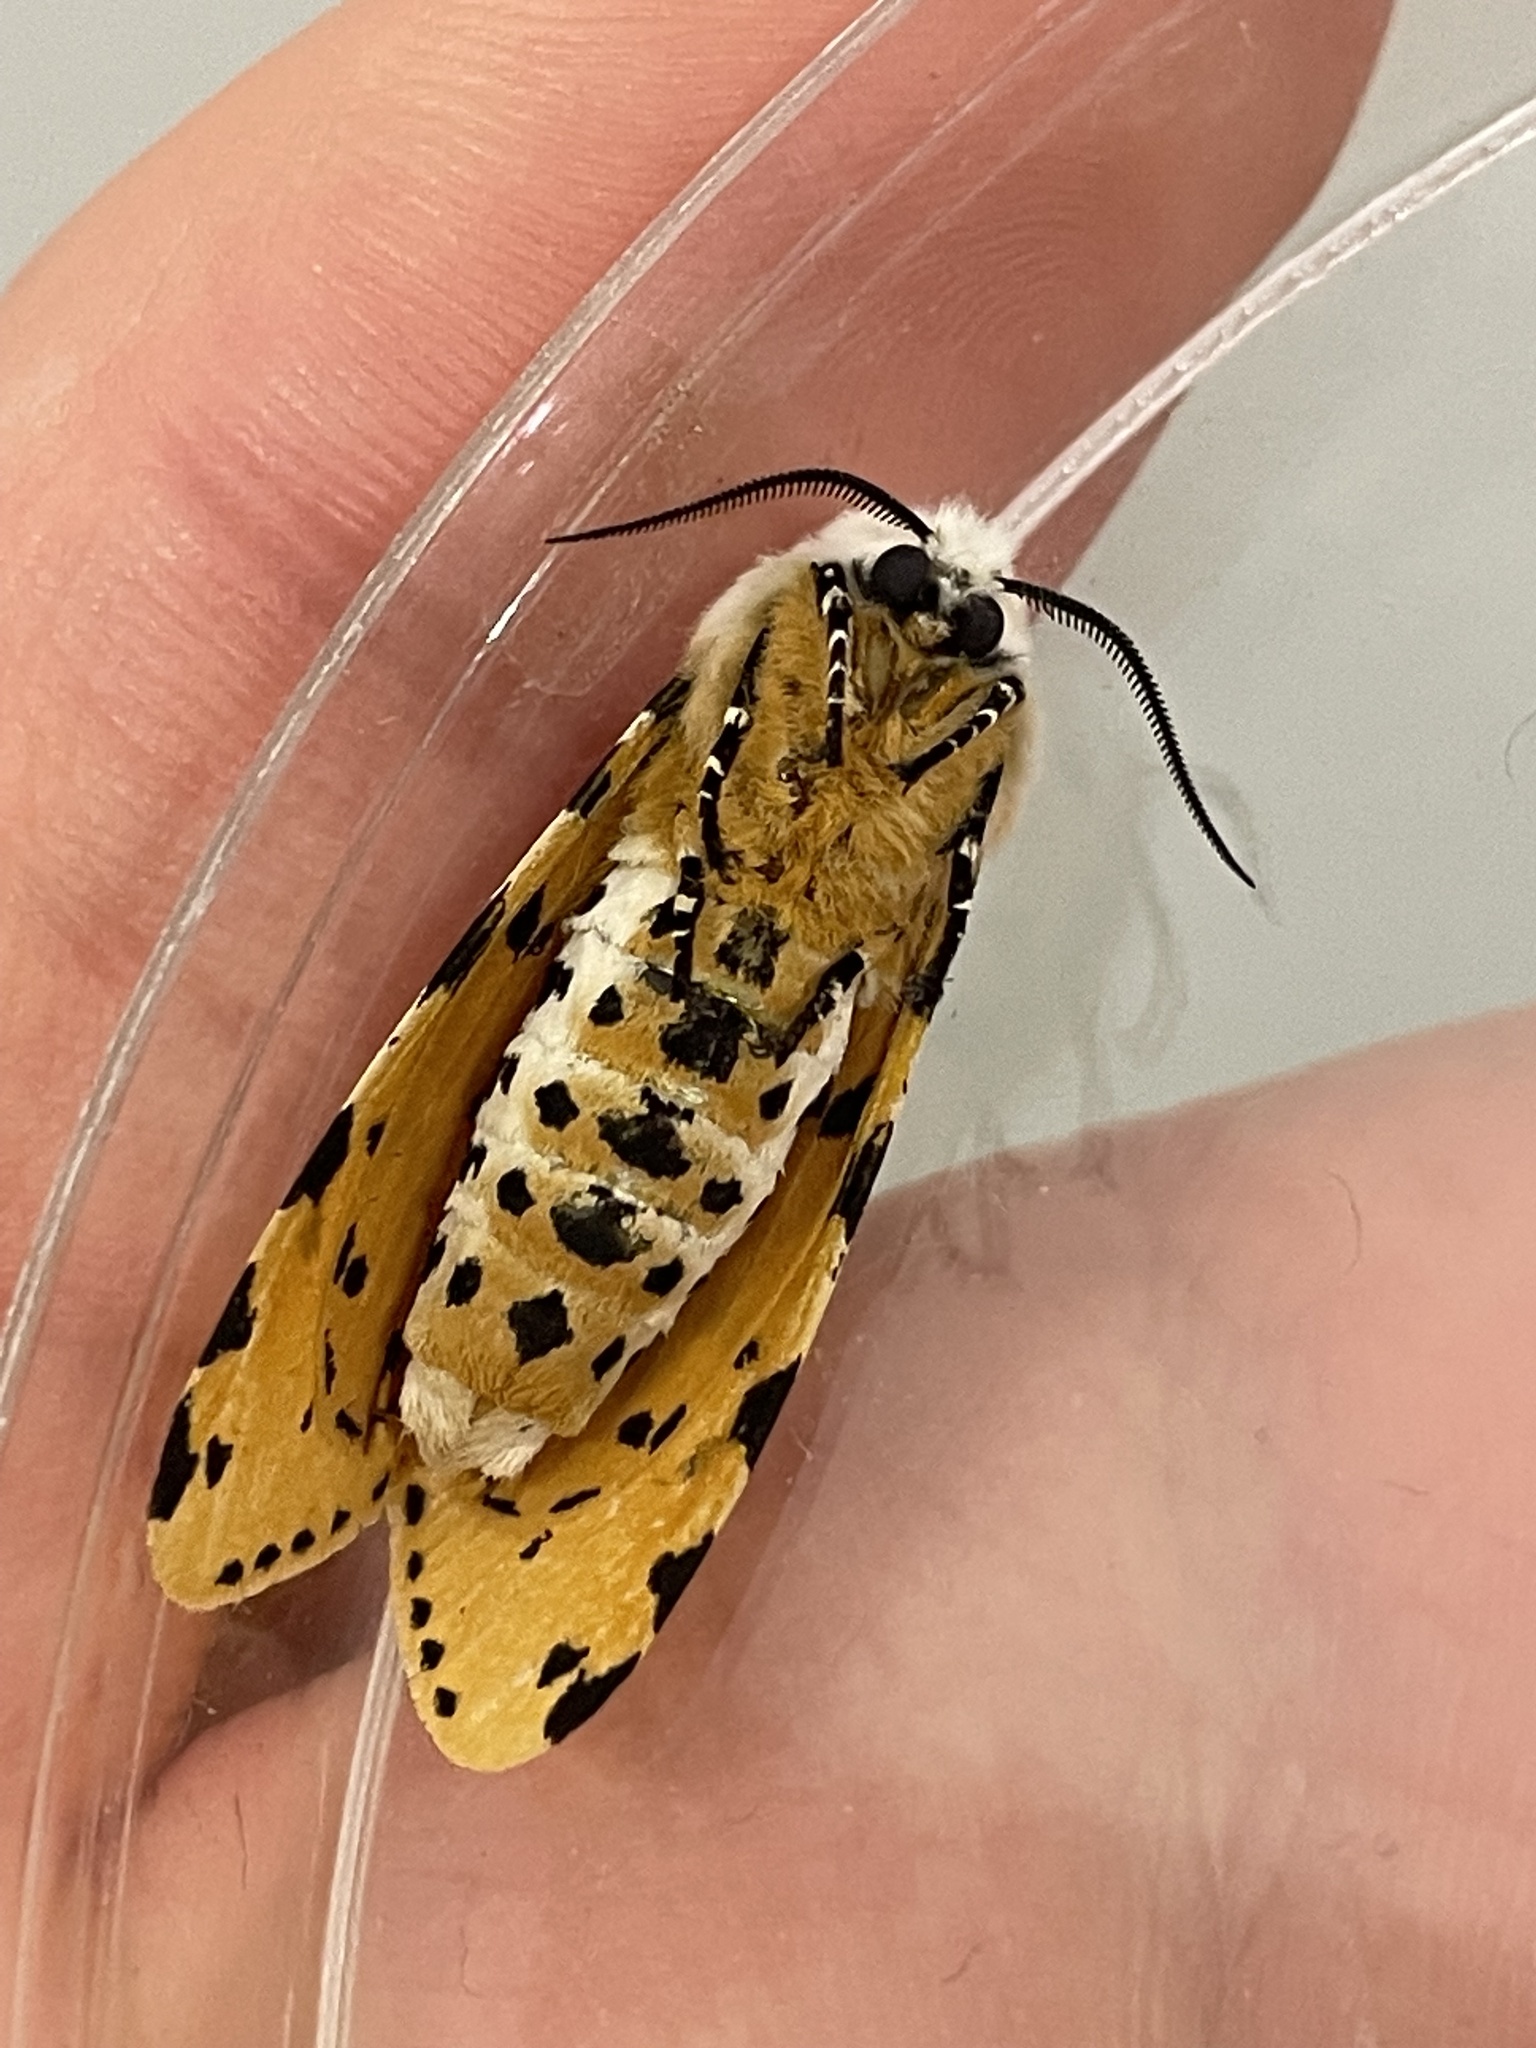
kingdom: Animalia
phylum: Arthropoda
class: Insecta
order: Lepidoptera
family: Erebidae
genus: Estigmene
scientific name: Estigmene acrea
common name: Salt marsh moth
